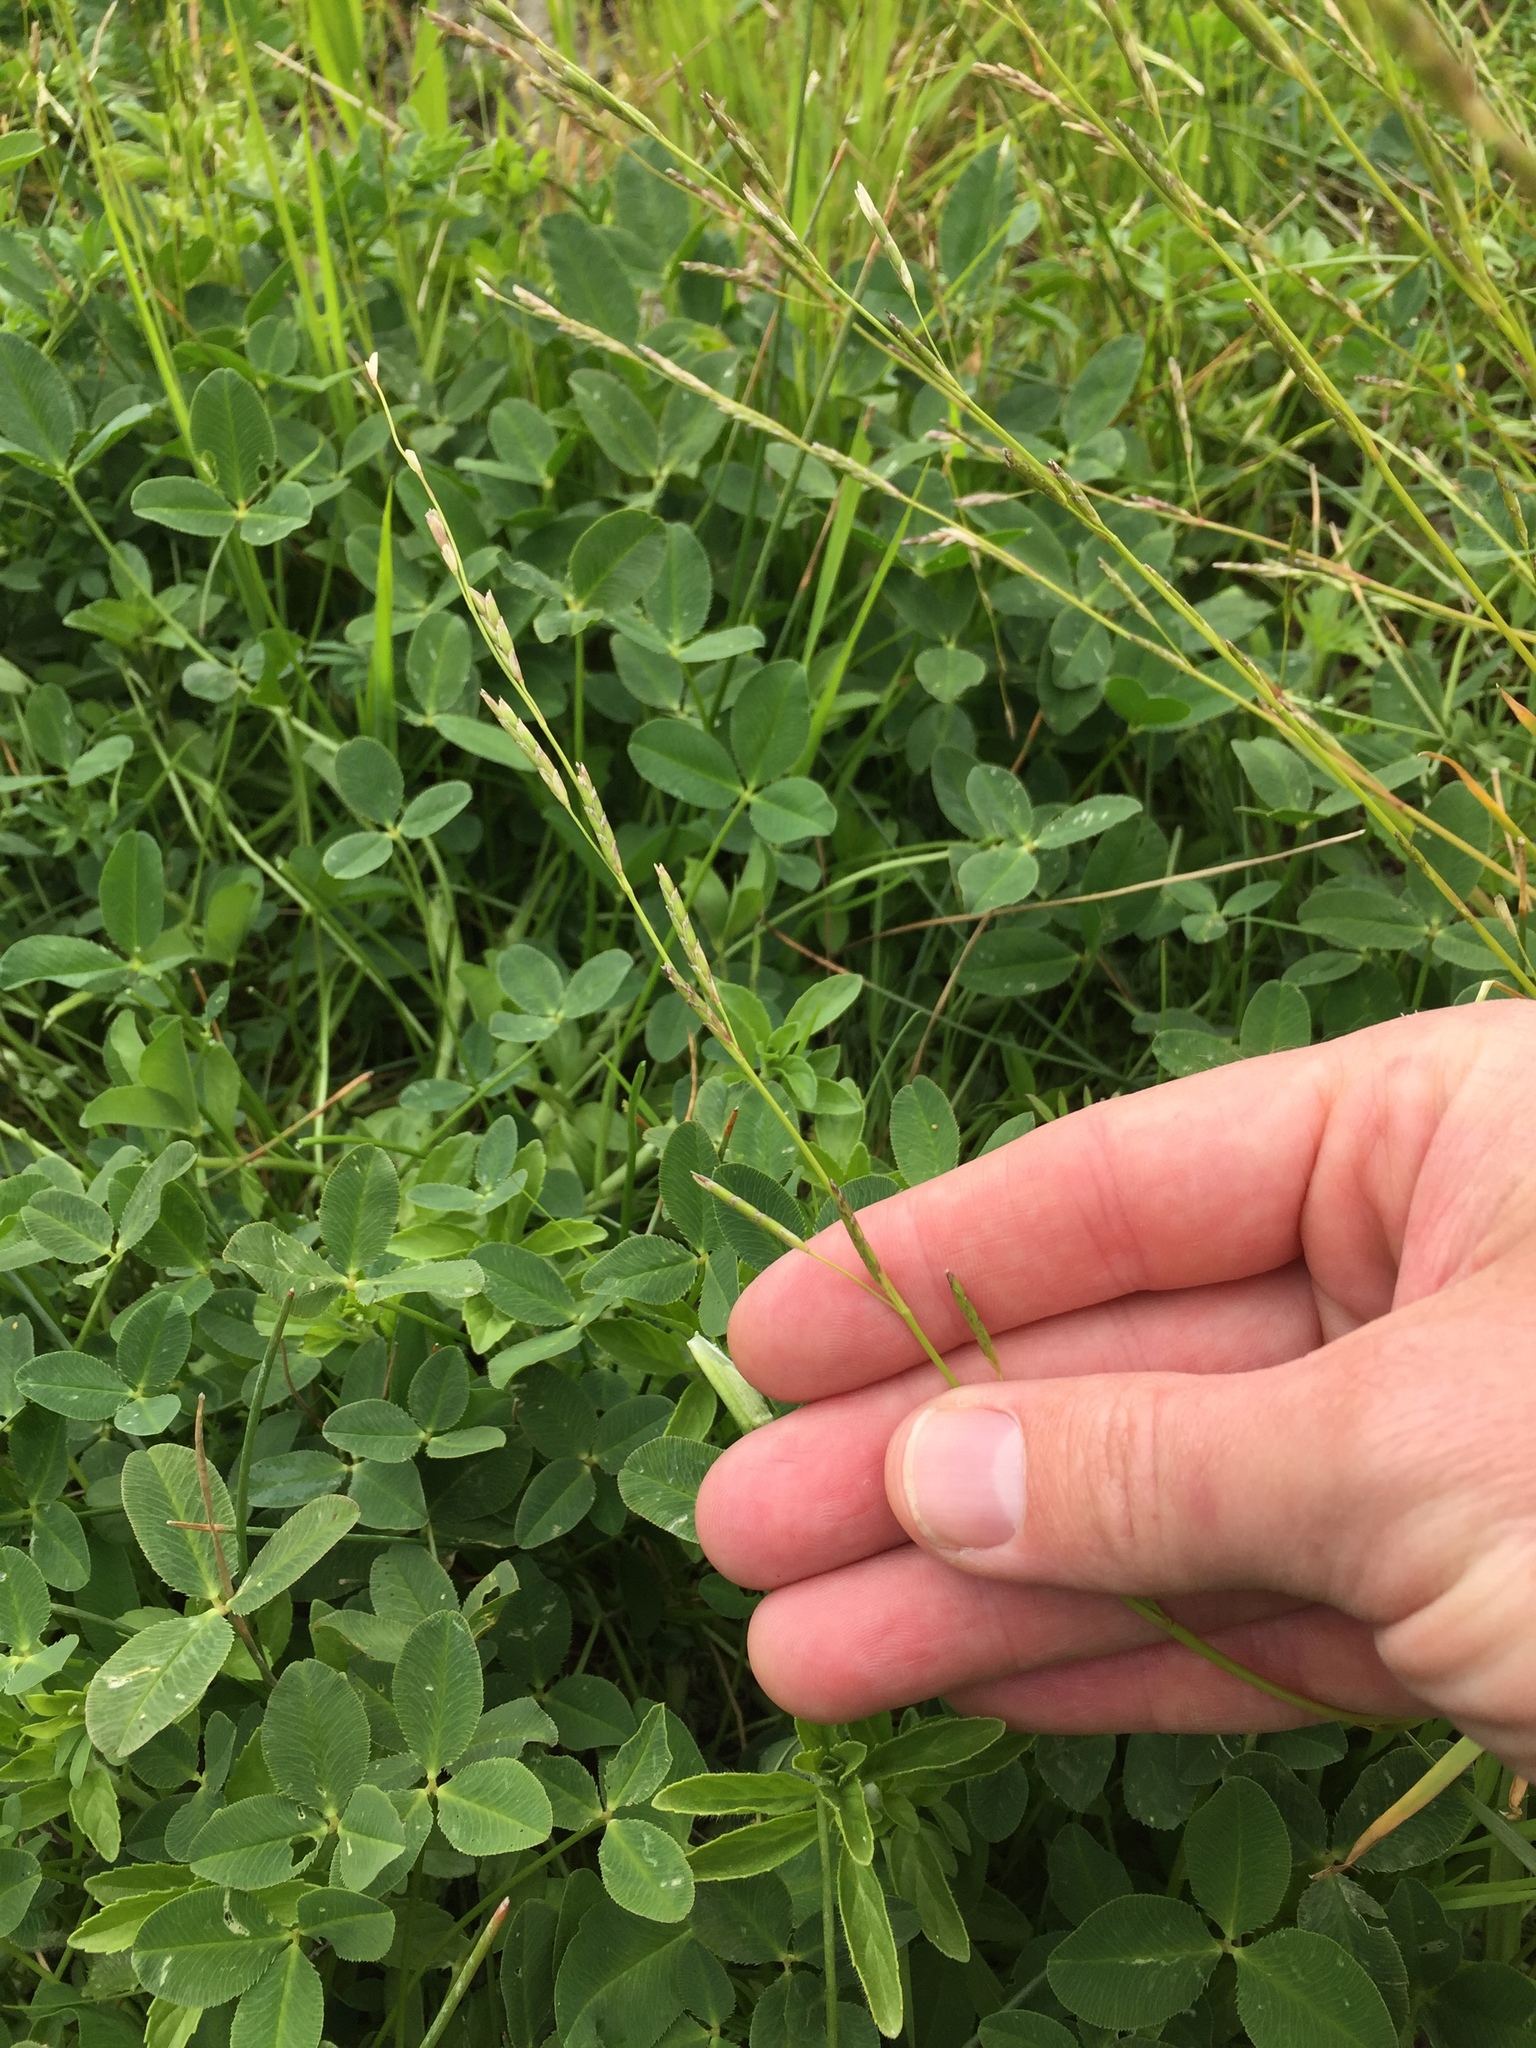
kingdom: Plantae
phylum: Tracheophyta
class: Liliopsida
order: Poales
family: Poaceae
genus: Glyceria
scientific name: Glyceria declinata
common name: Small sweet-grass
